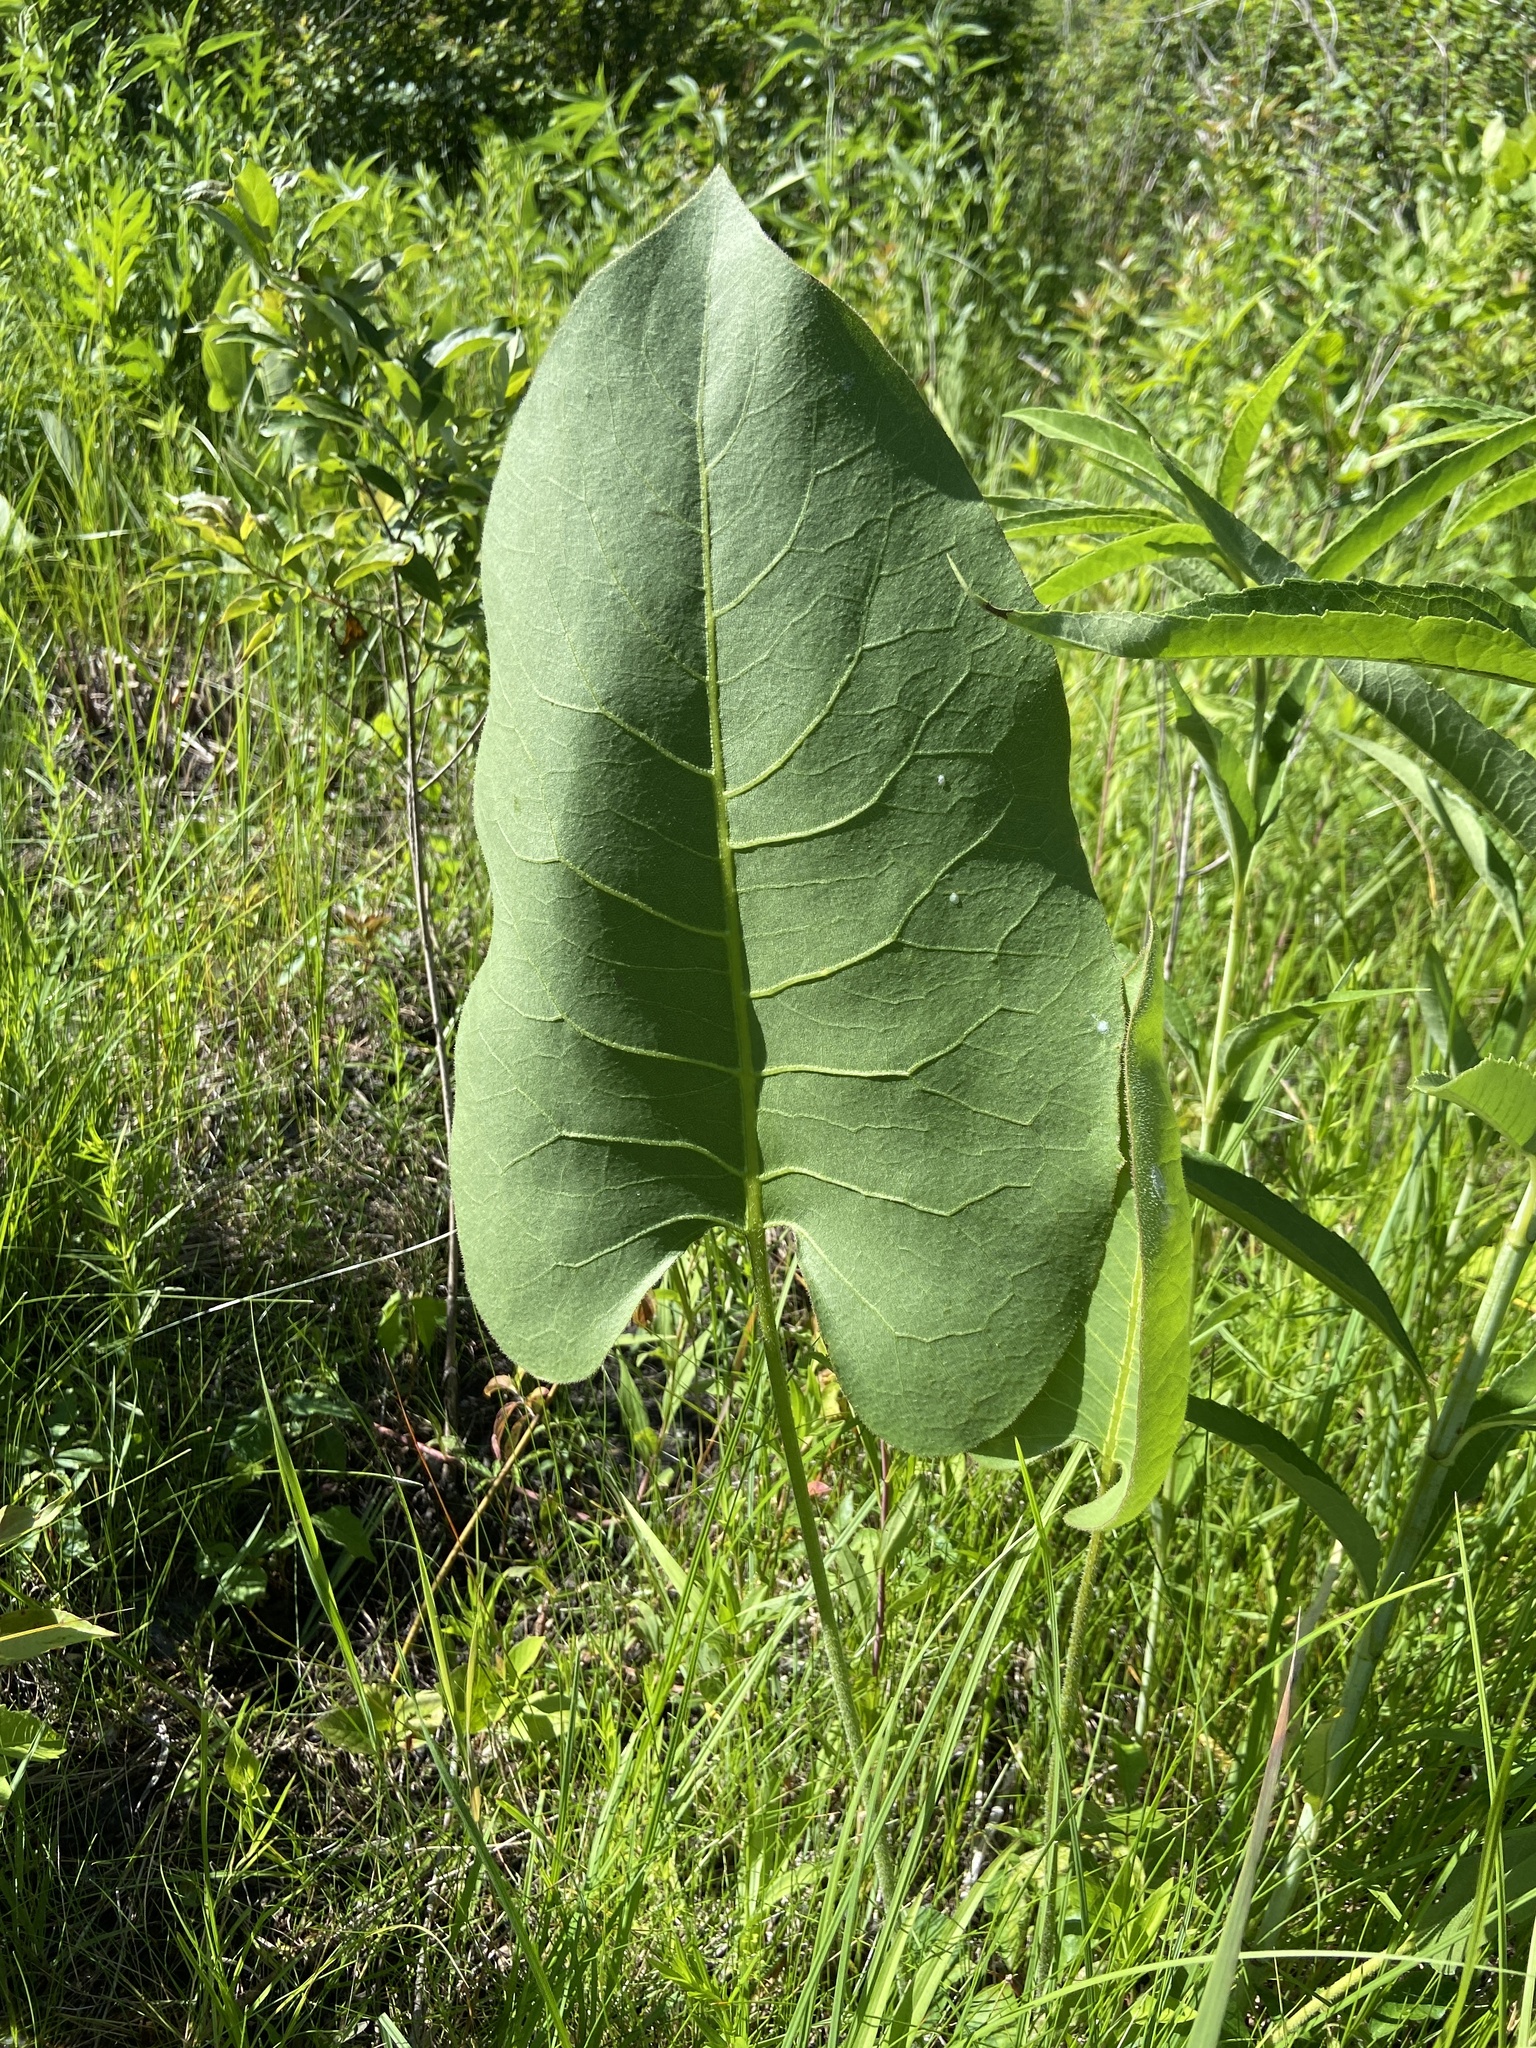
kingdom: Plantae
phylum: Tracheophyta
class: Magnoliopsida
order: Asterales
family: Asteraceae
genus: Silphium
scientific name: Silphium terebinthinaceum
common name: Basal-leaf rosinweed
